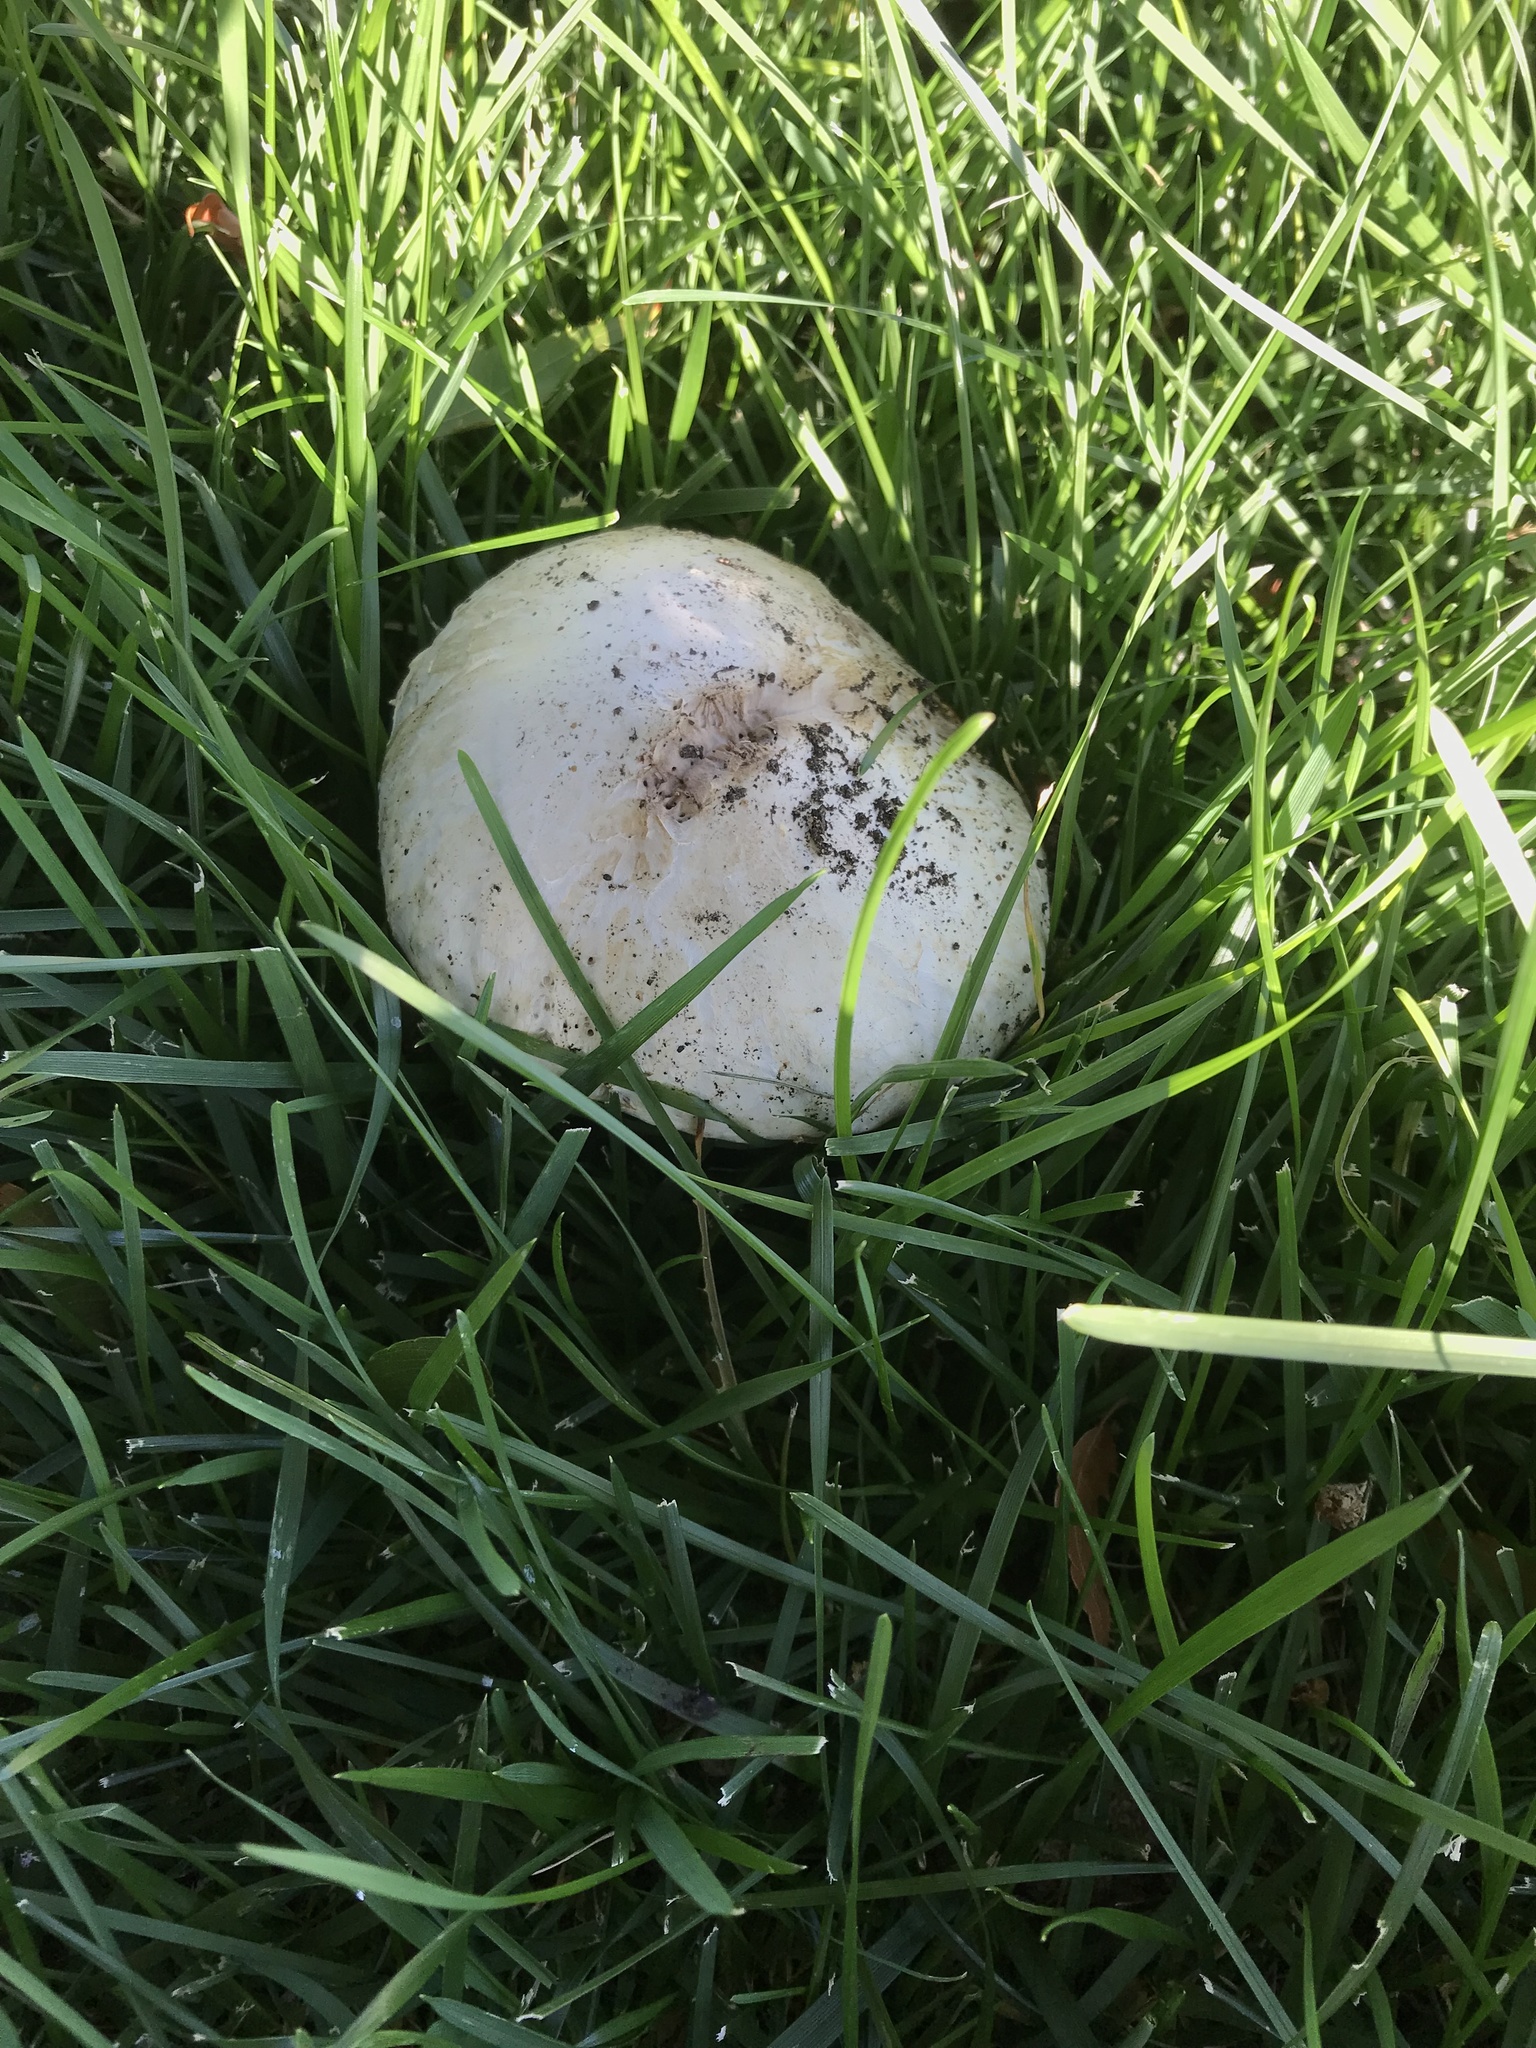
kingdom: Fungi
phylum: Basidiomycota
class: Agaricomycetes
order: Agaricales
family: Agaricaceae
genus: Agaricus
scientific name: Agaricus xanthodermus
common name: Yellow stainer
